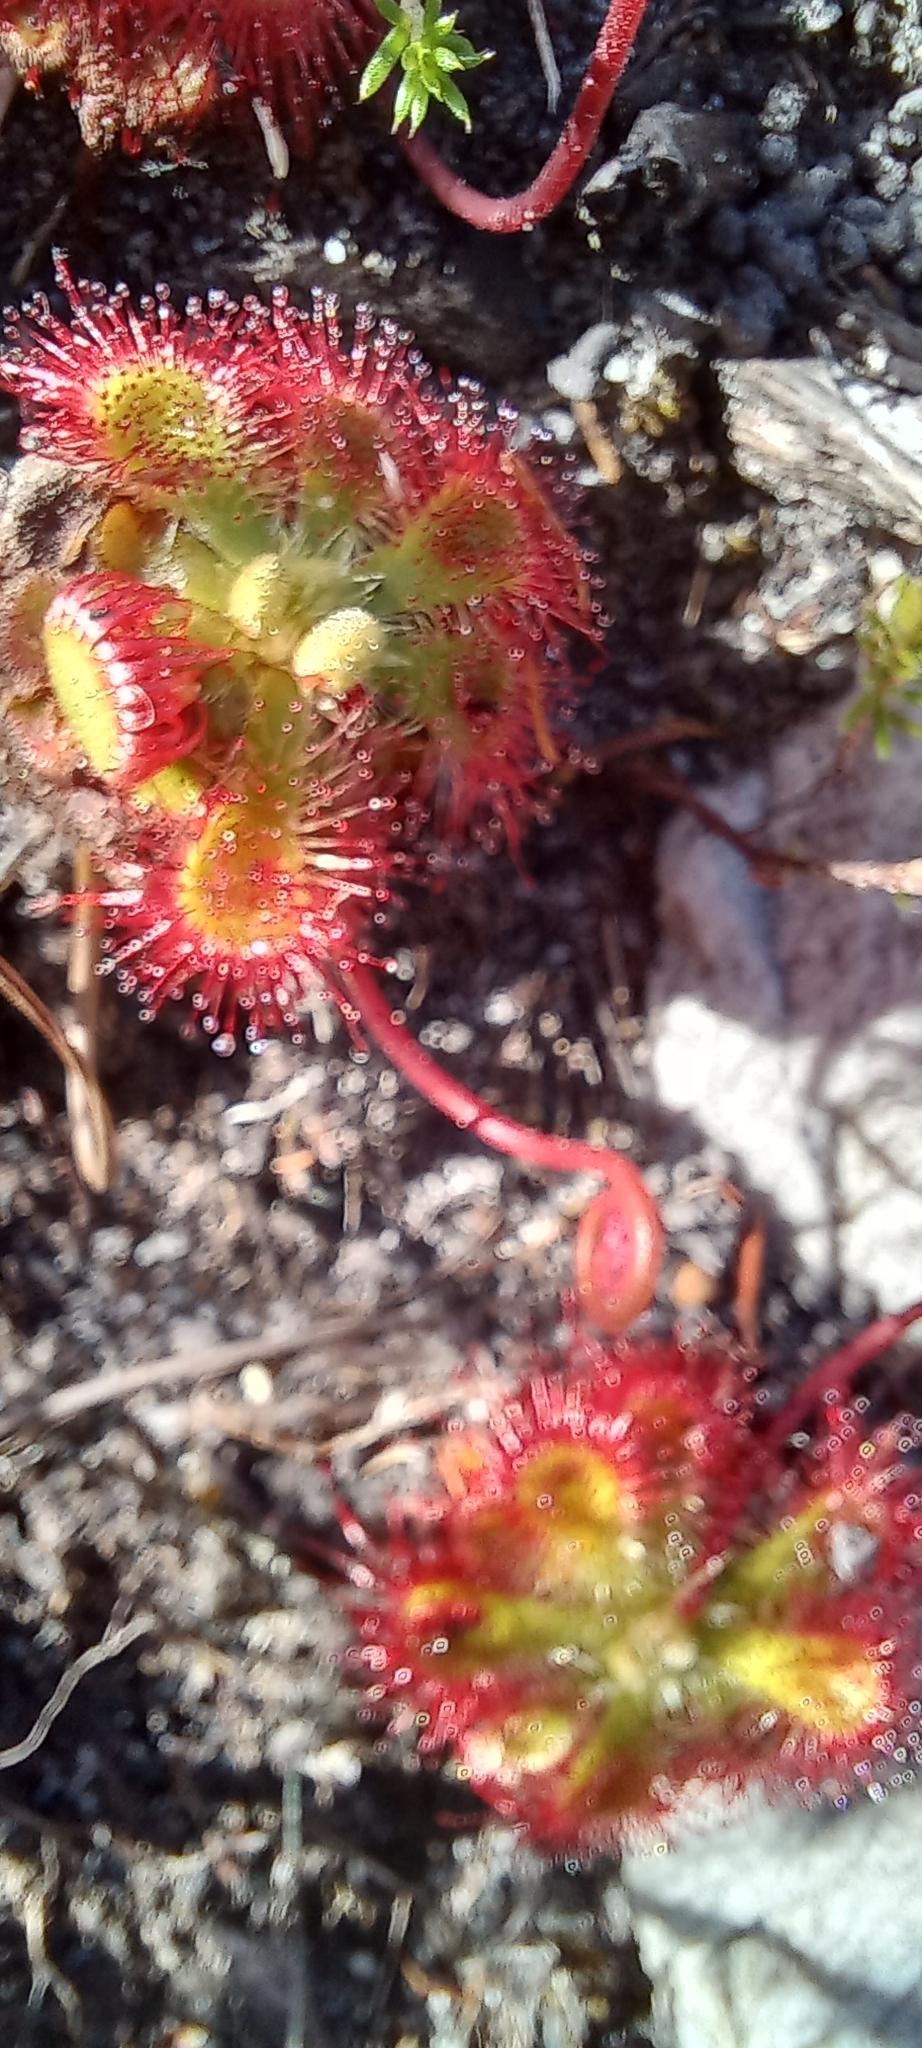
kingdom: Plantae
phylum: Tracheophyta
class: Magnoliopsida
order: Caryophyllales
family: Droseraceae
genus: Drosera
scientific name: Drosera xerophila
